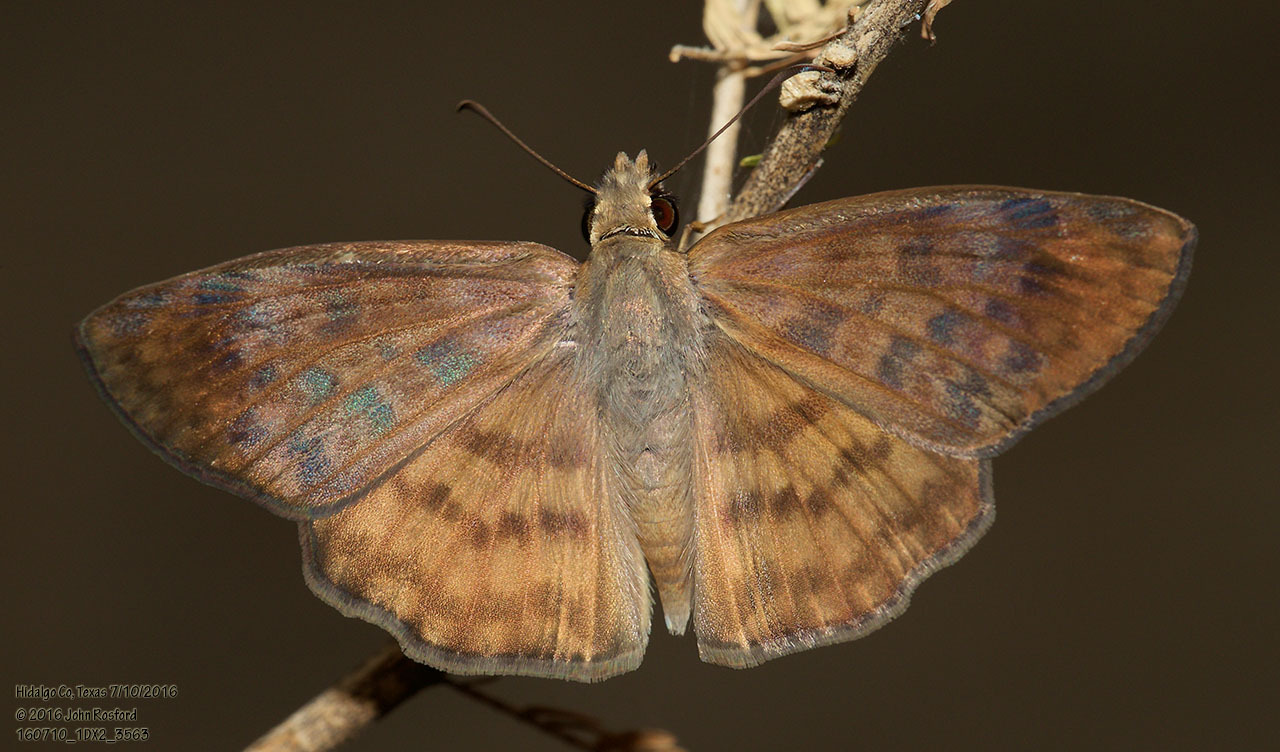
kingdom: Animalia
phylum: Arthropoda
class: Insecta
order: Lepidoptera
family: Hesperiidae
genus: Timochares
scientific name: Timochares ruptifasciata
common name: Brown-banded skipper
